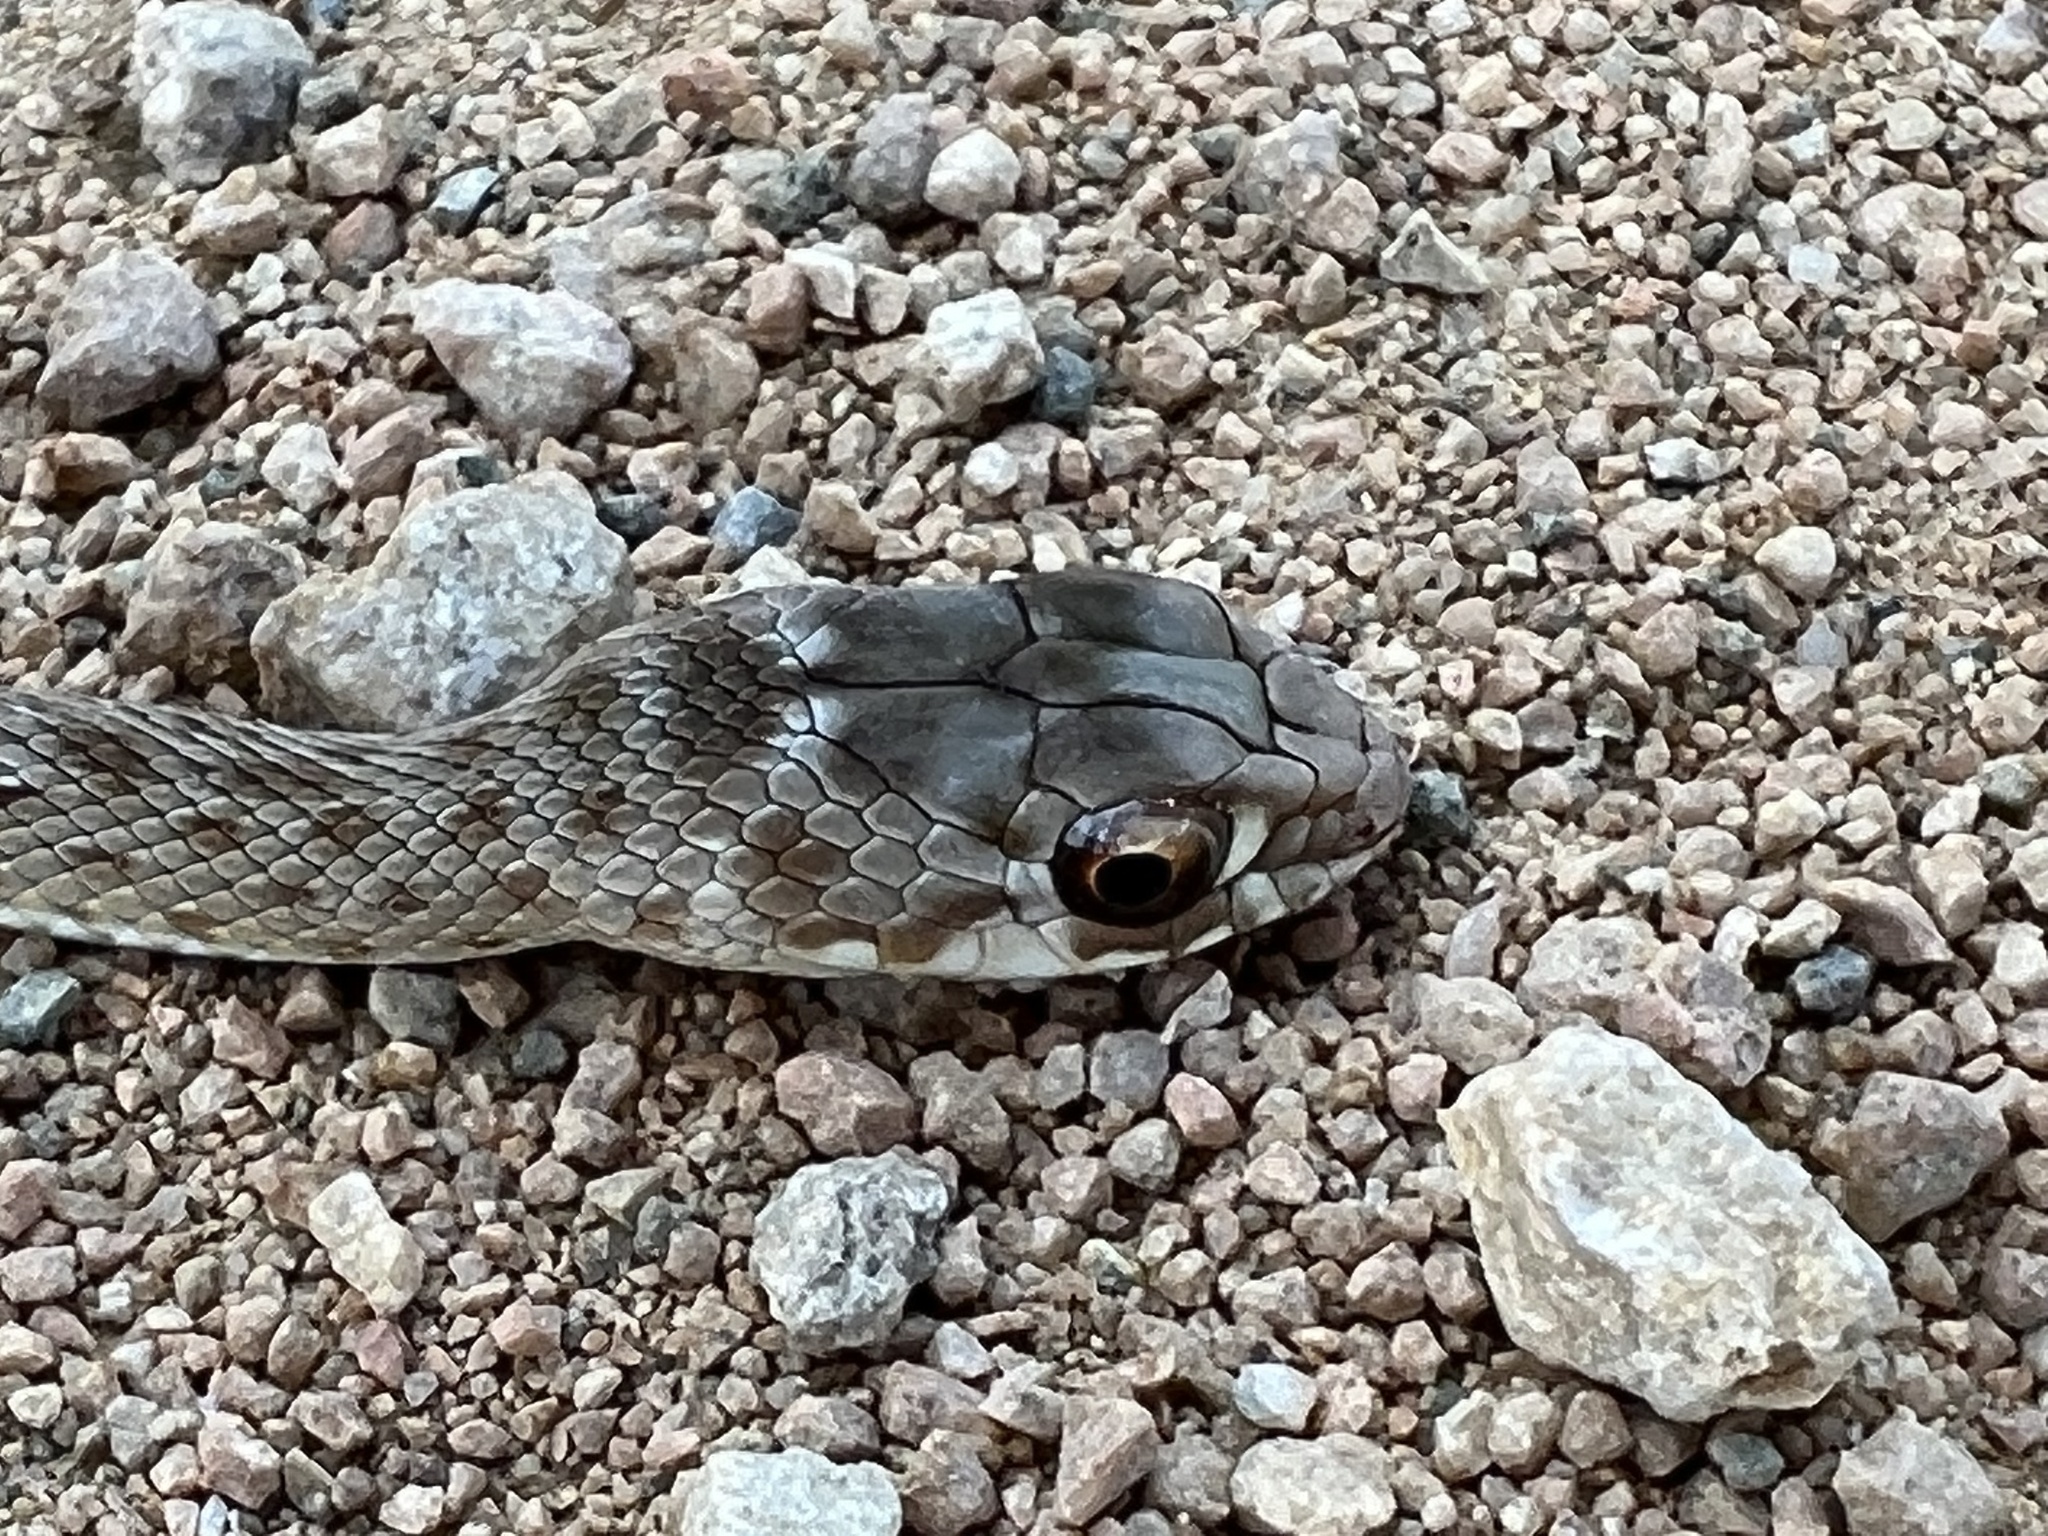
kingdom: Animalia
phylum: Chordata
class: Squamata
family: Psammophiidae
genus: Malpolon
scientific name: Malpolon monspessulanus
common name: Montpellier snake
